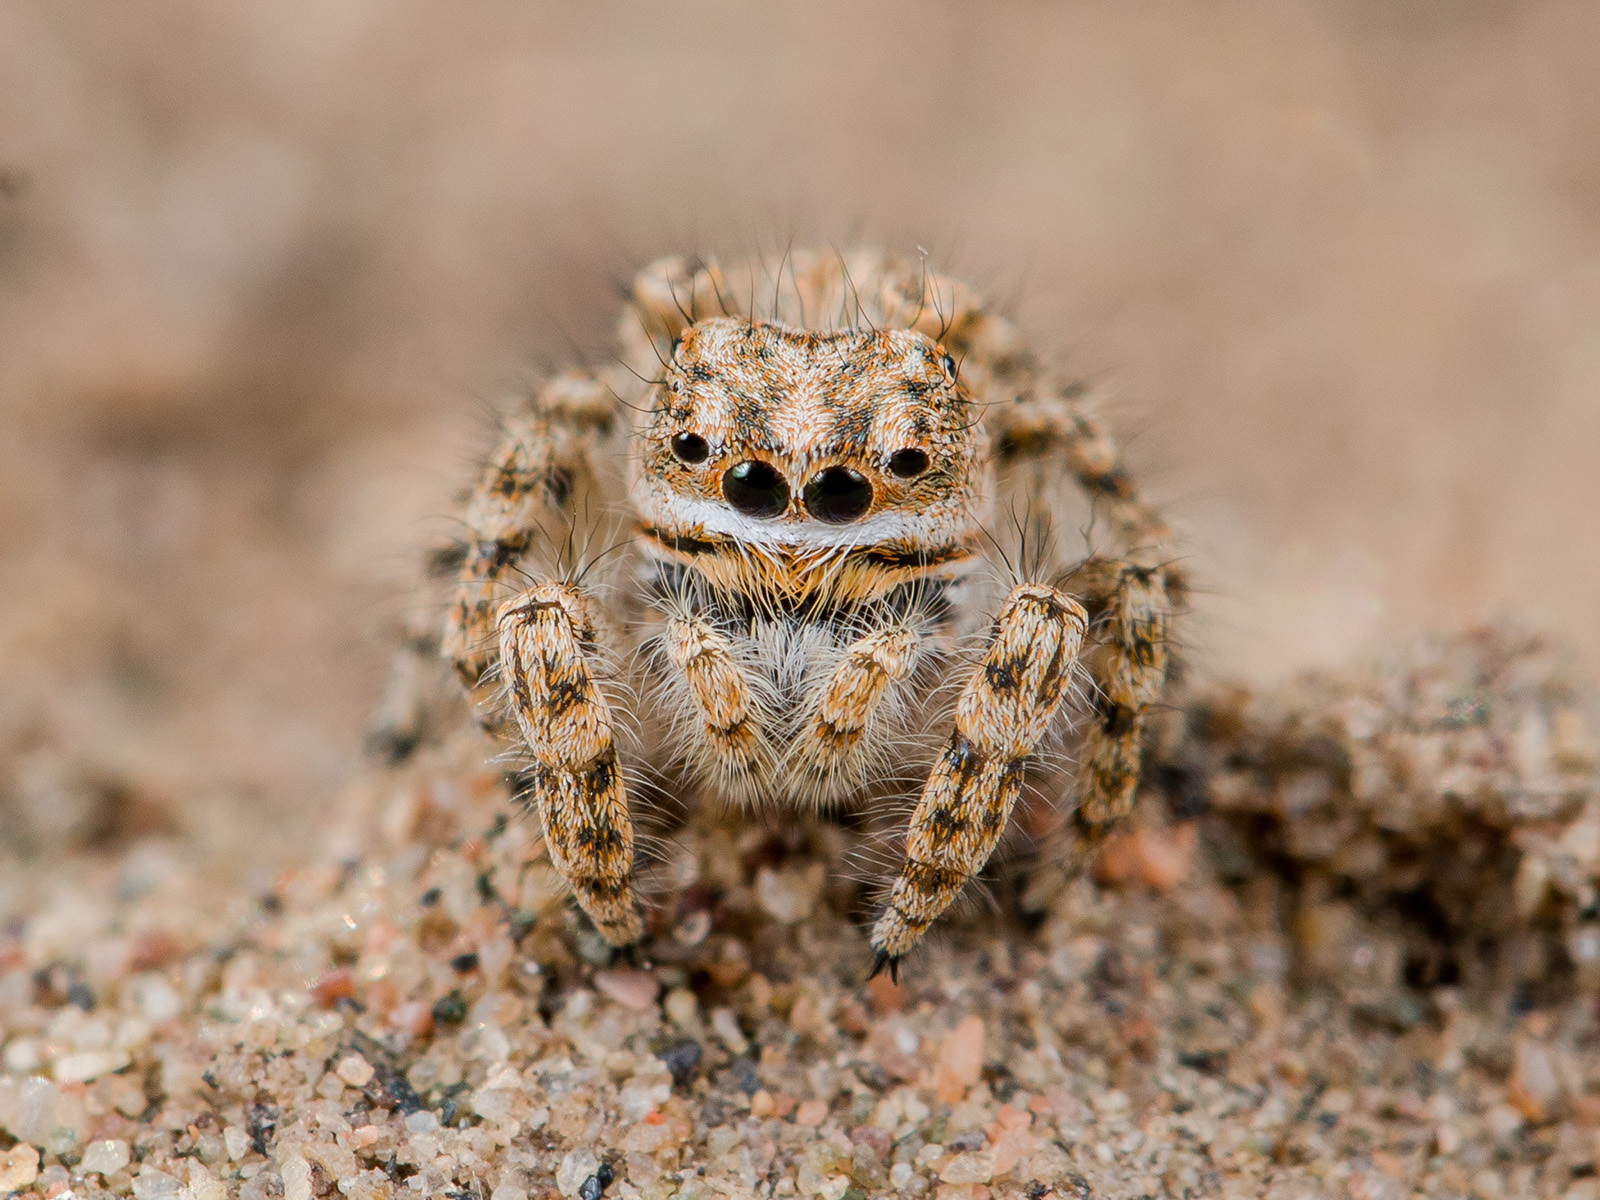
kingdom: Animalia
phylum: Arthropoda
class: Arachnida
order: Araneae
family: Salticidae
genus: Yllenus
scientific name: Yllenus turkestanicus
